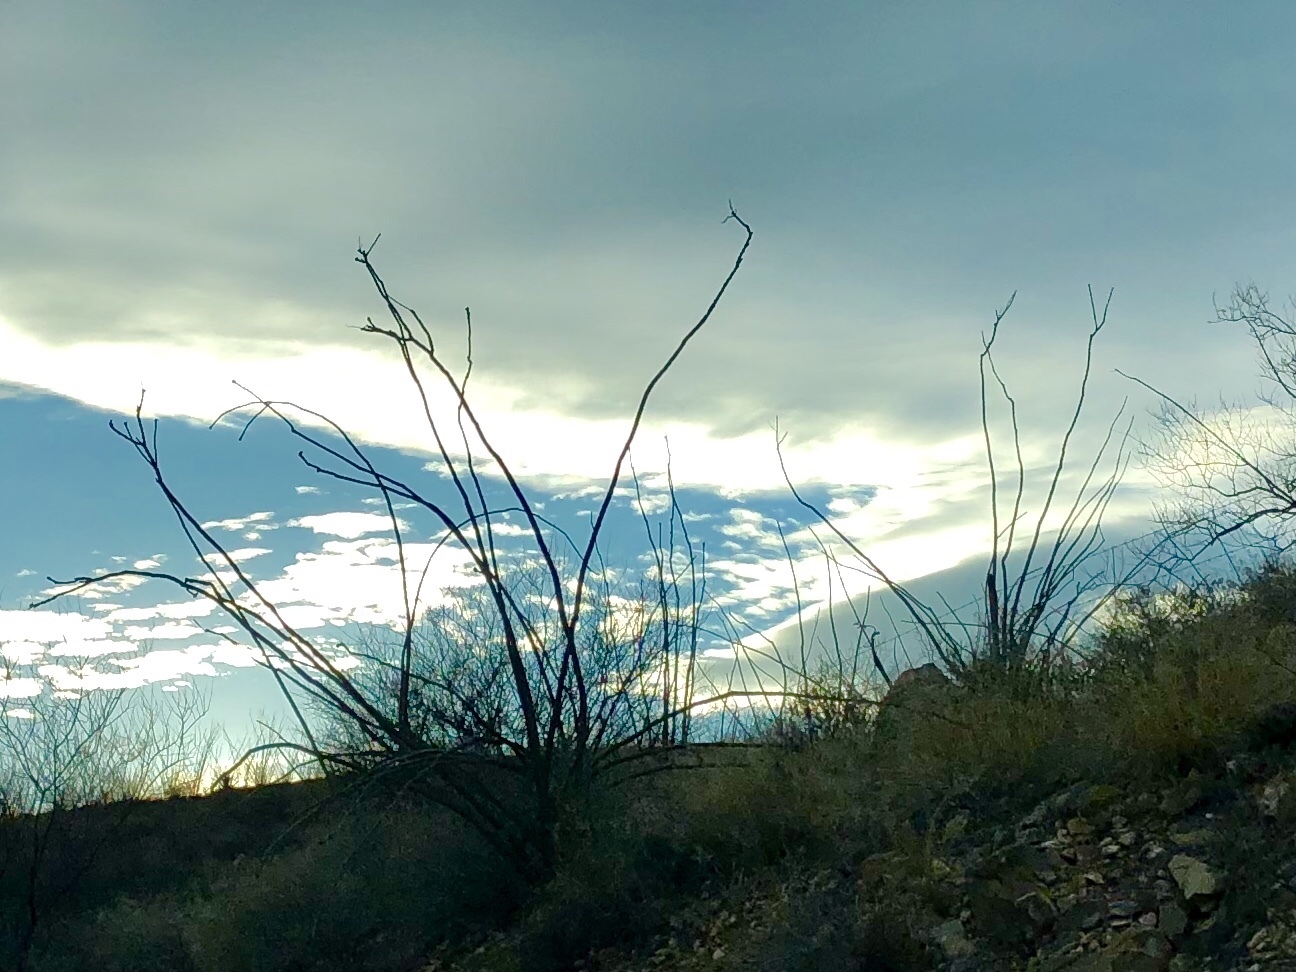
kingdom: Plantae
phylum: Tracheophyta
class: Magnoliopsida
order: Ericales
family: Fouquieriaceae
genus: Fouquieria
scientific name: Fouquieria splendens
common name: Vine-cactus
